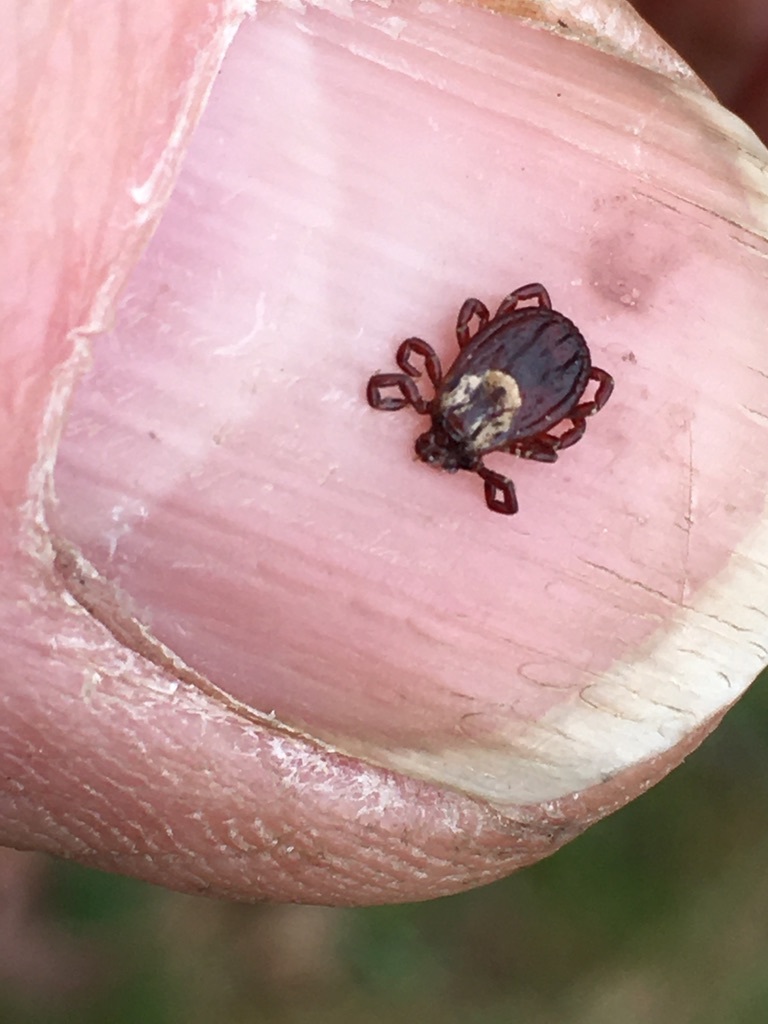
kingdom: Animalia
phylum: Arthropoda
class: Arachnida
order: Ixodida
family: Ixodidae
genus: Dermacentor
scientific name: Dermacentor variabilis
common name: American dog tick
